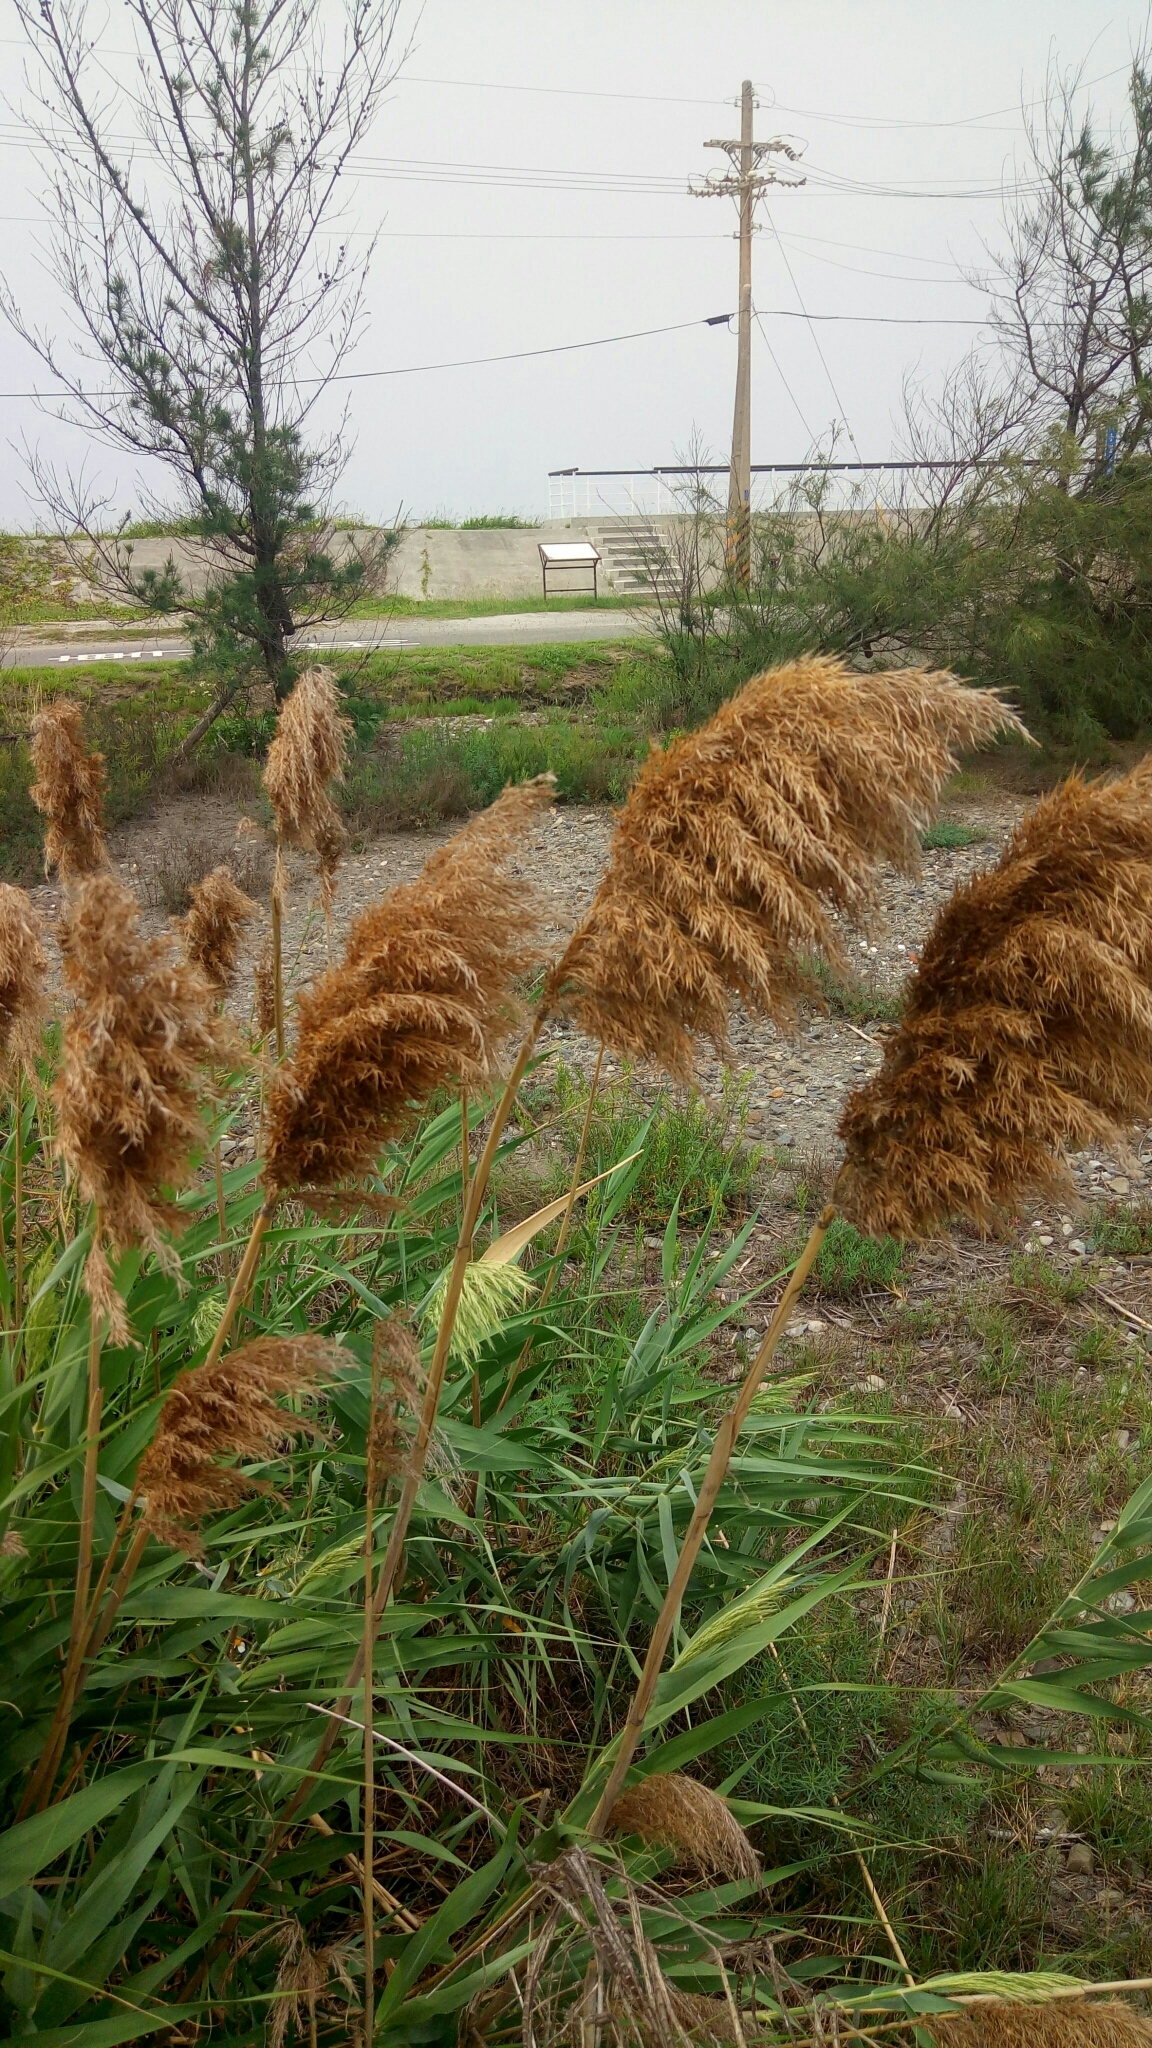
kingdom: Plantae
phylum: Tracheophyta
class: Liliopsida
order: Poales
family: Poaceae
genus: Phragmites
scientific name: Phragmites australis
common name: Common reed
